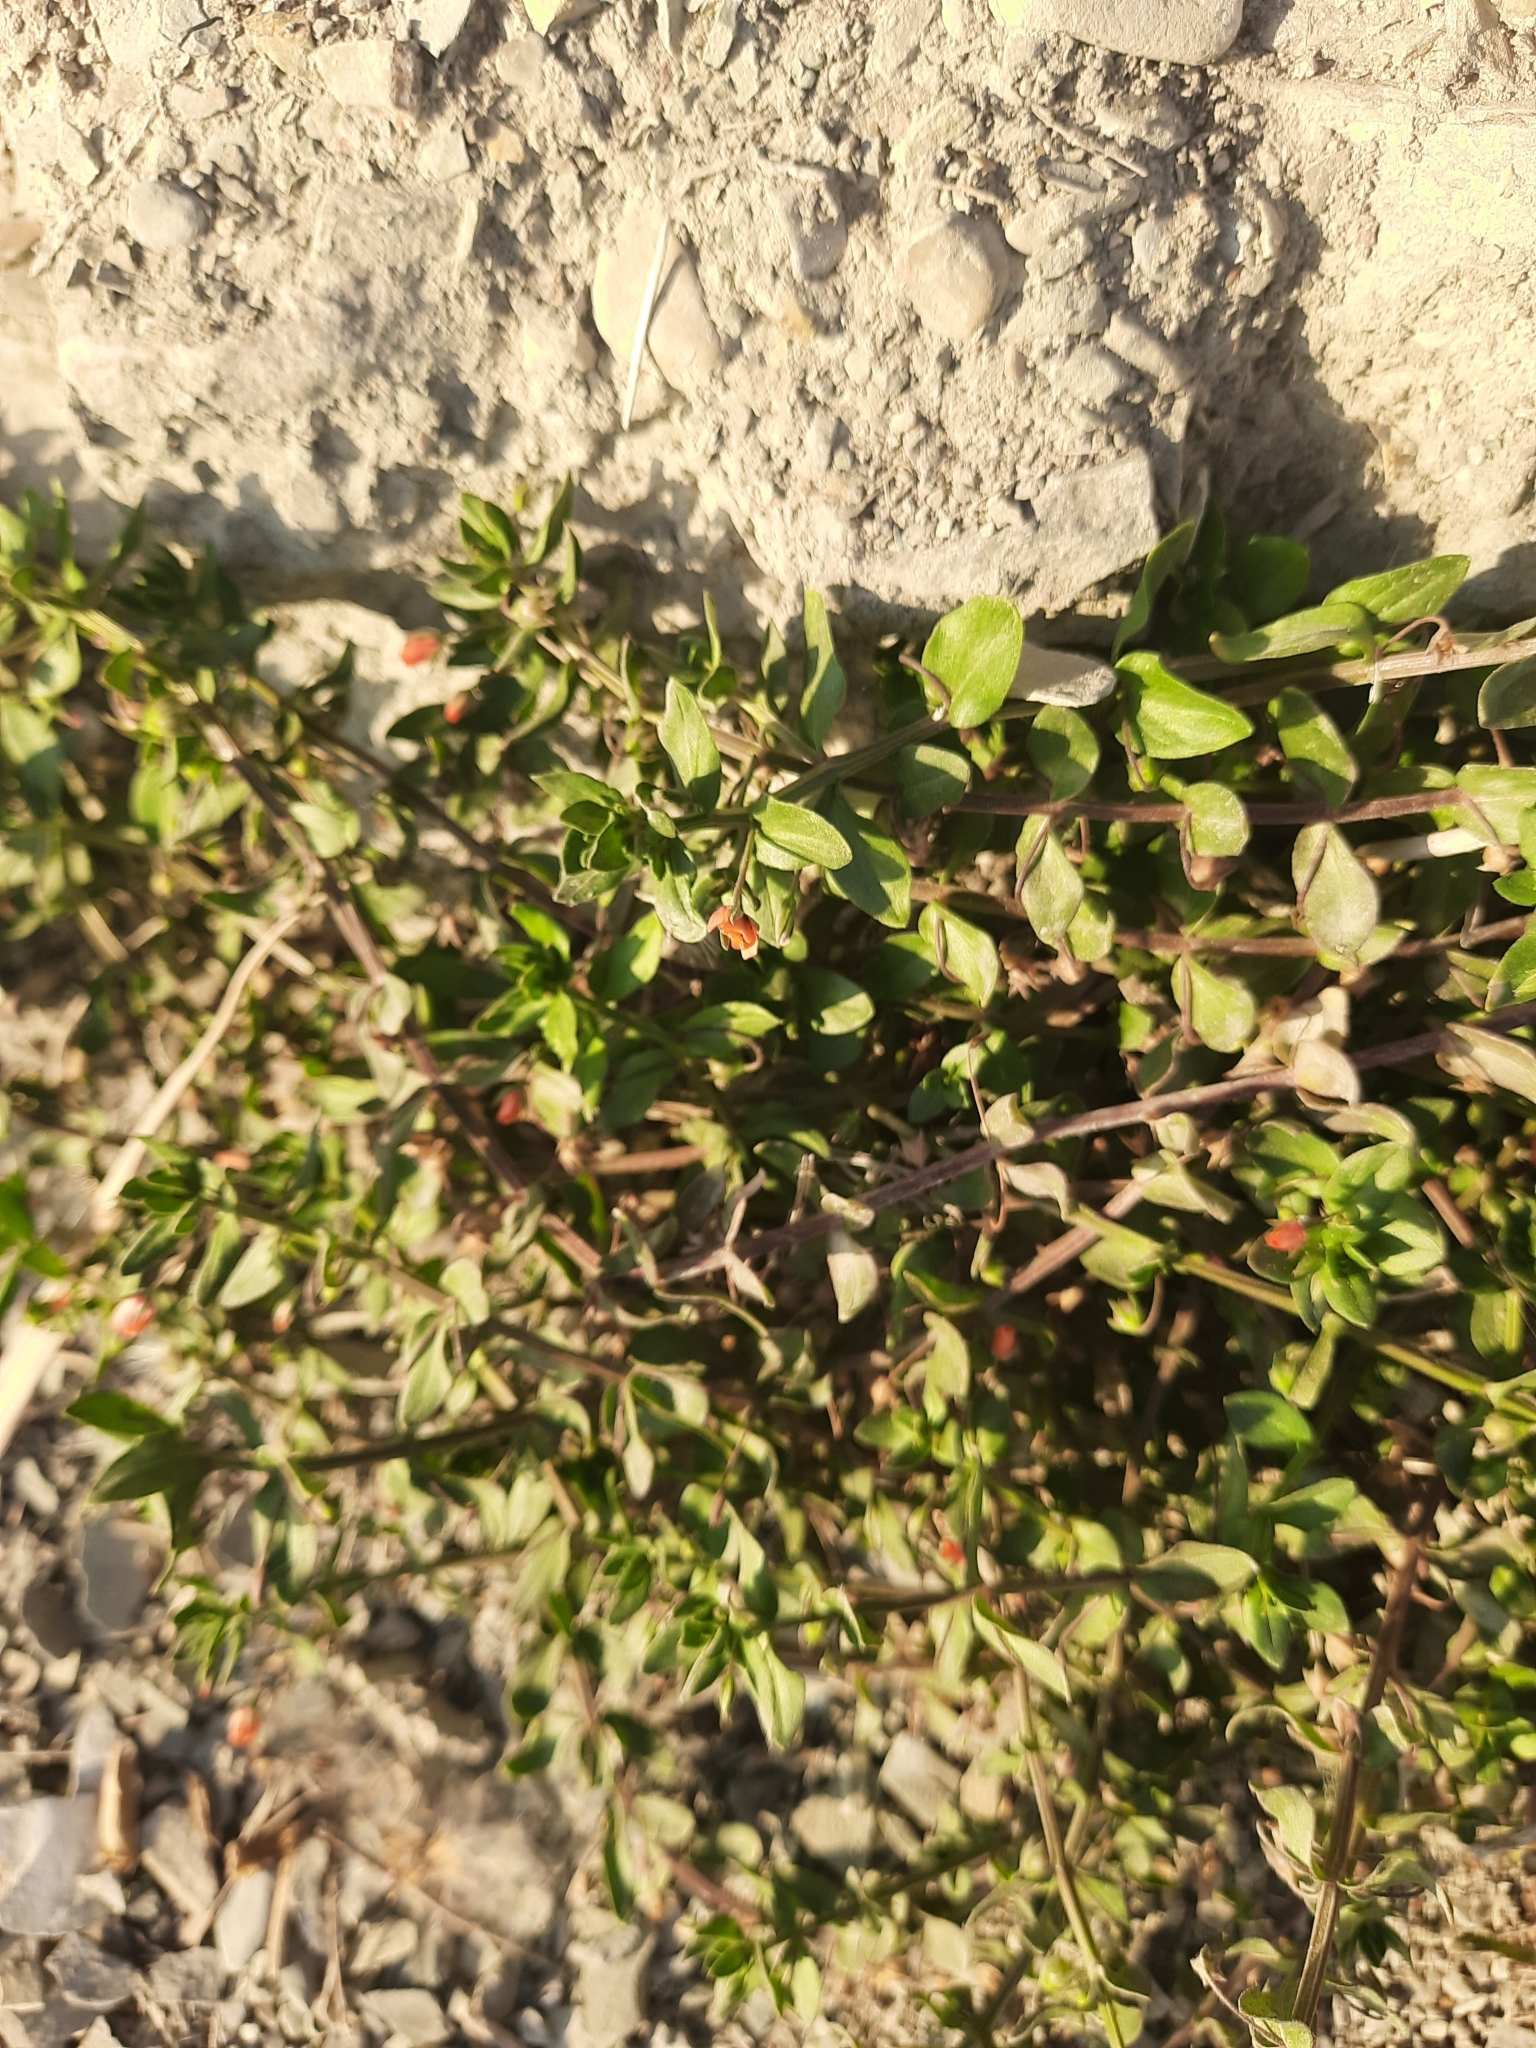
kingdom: Plantae
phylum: Tracheophyta
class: Magnoliopsida
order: Ericales
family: Primulaceae
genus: Lysimachia
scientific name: Lysimachia arvensis
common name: Scarlet pimpernel
